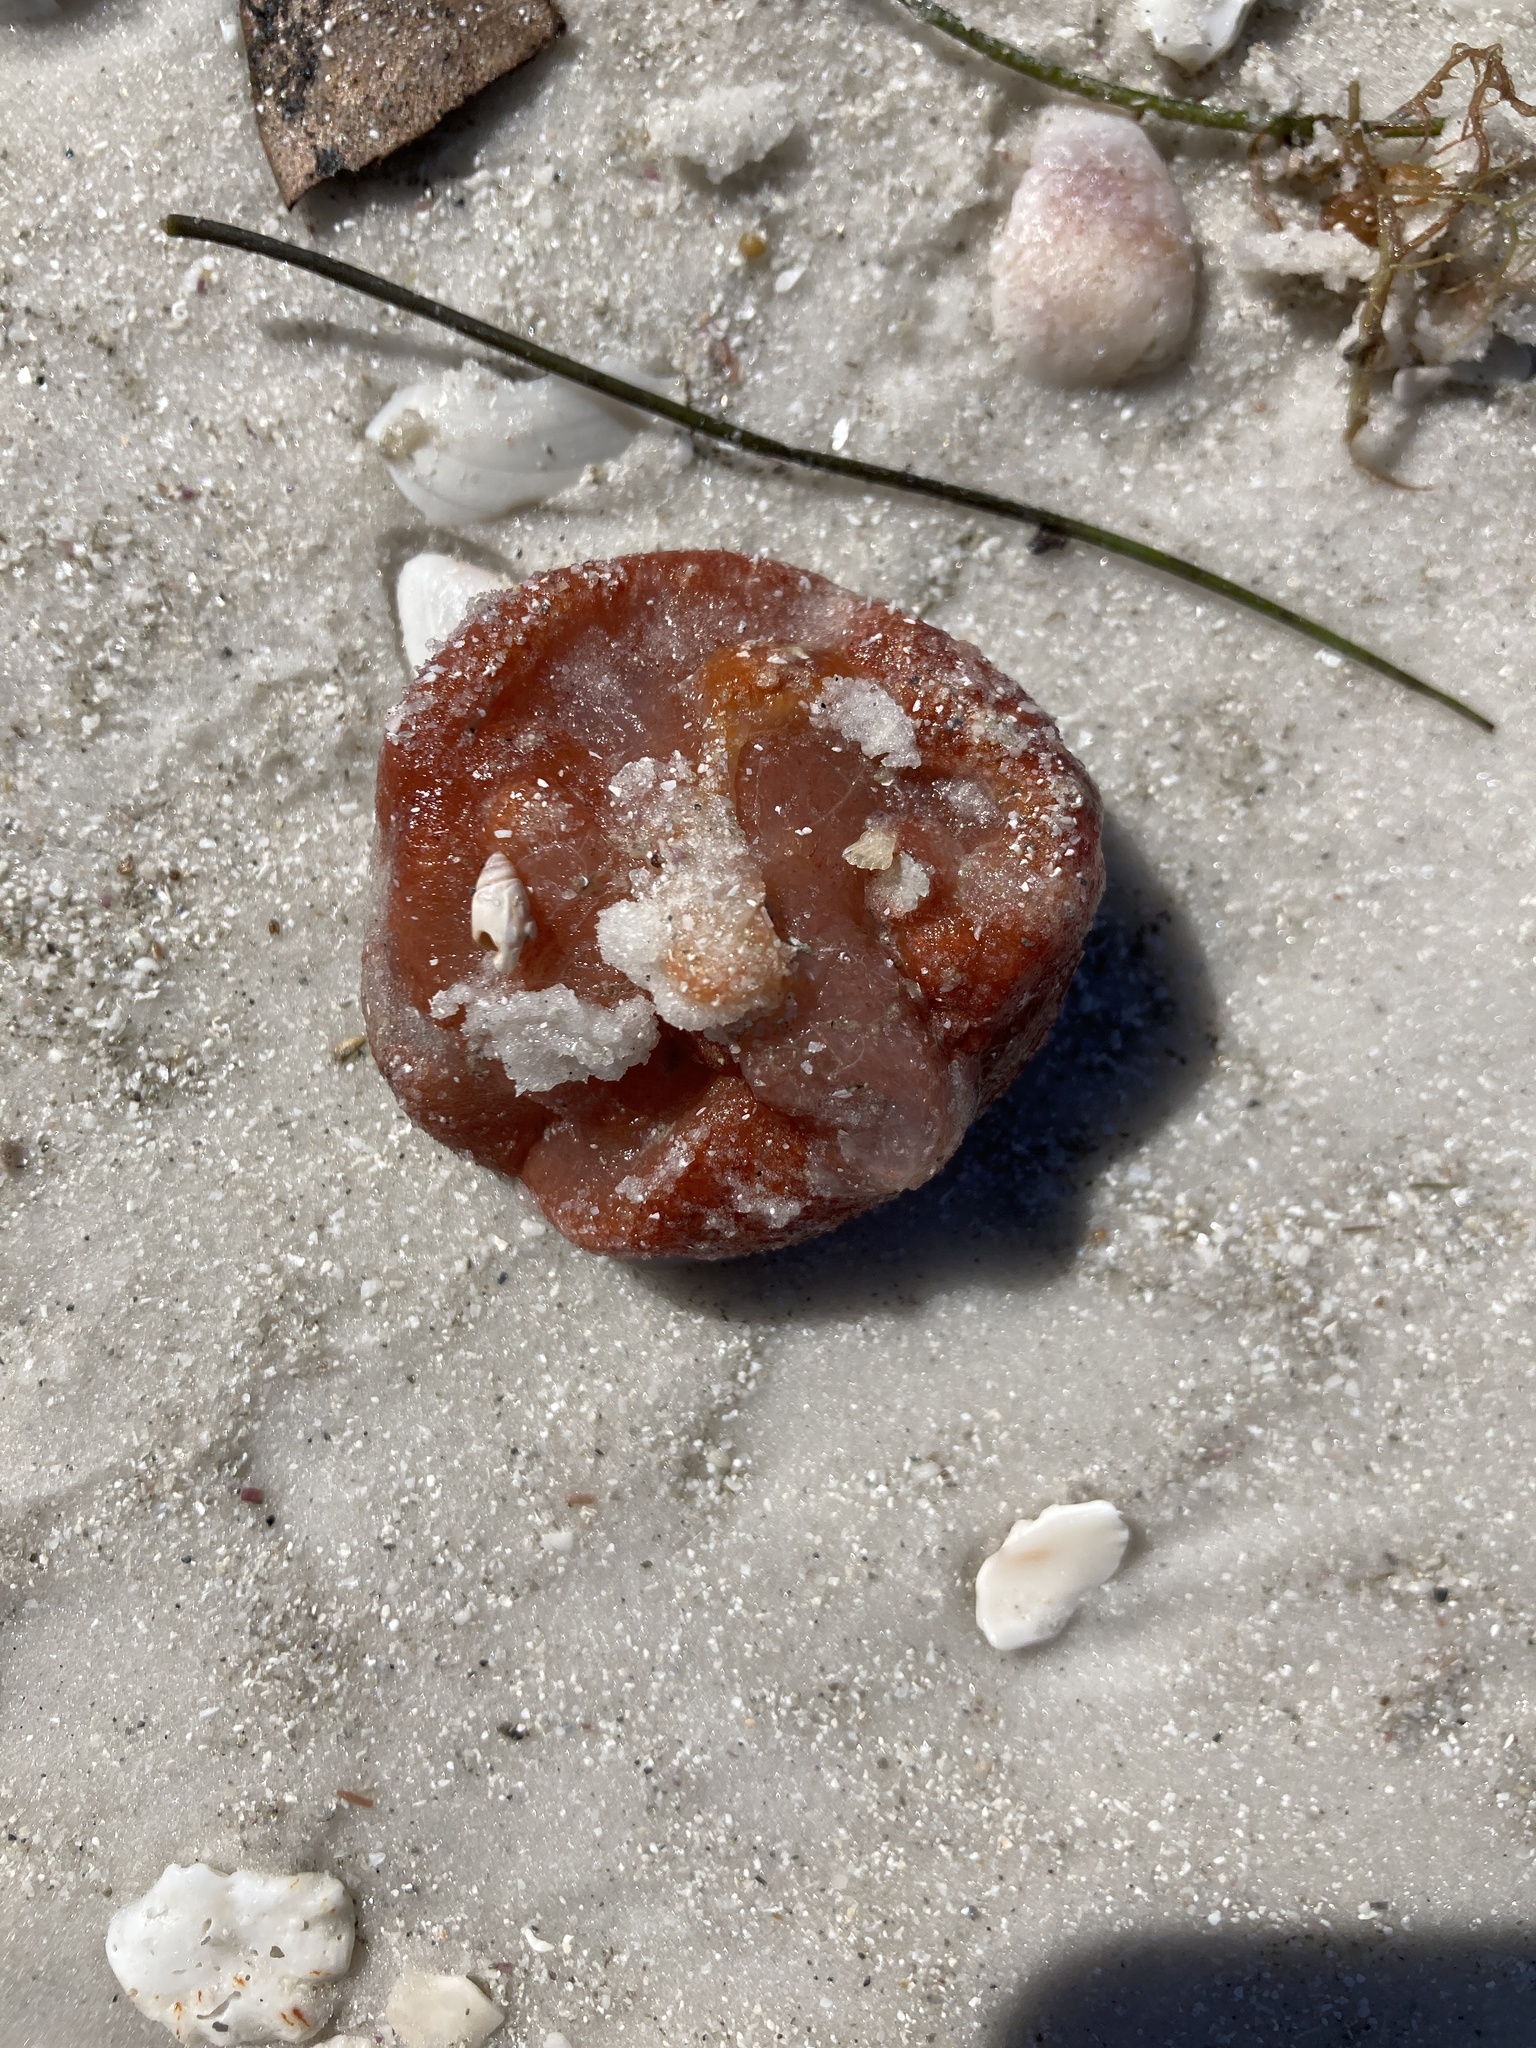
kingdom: Animalia
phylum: Chordata
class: Ascidiacea
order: Aplousobranchia
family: Polyclinidae
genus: Aplidium
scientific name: Aplidium stellatum
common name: Atlantic sea pork
